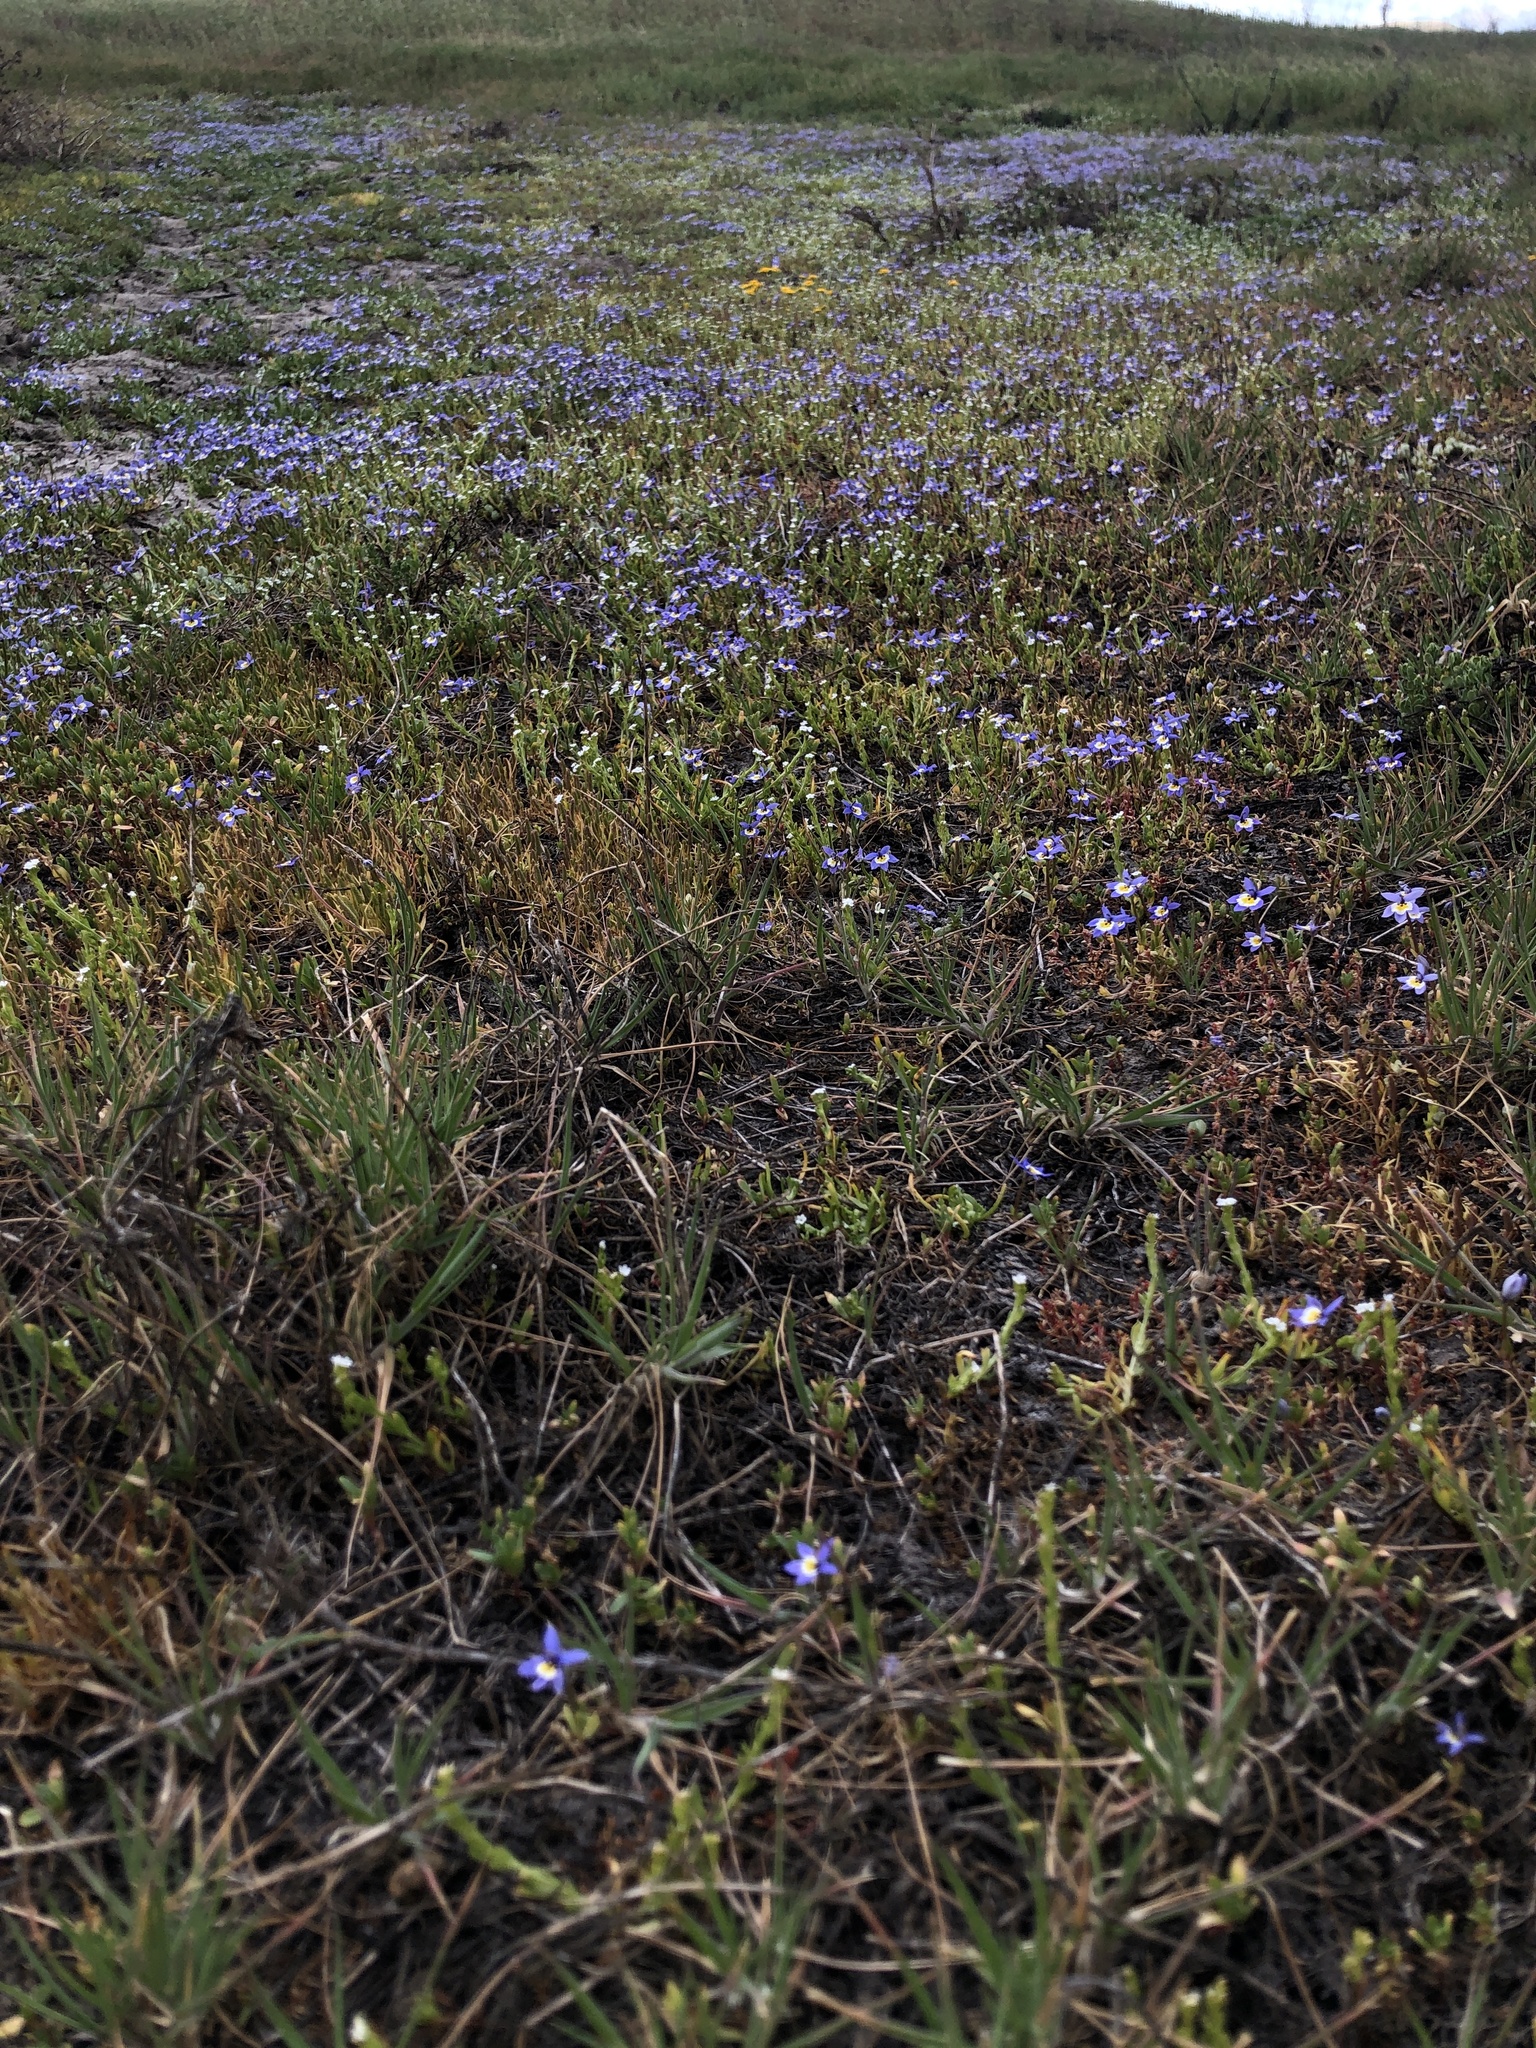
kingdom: Plantae
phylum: Tracheophyta
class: Magnoliopsida
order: Asterales
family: Campanulaceae
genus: Downingia
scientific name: Downingia pulchella
